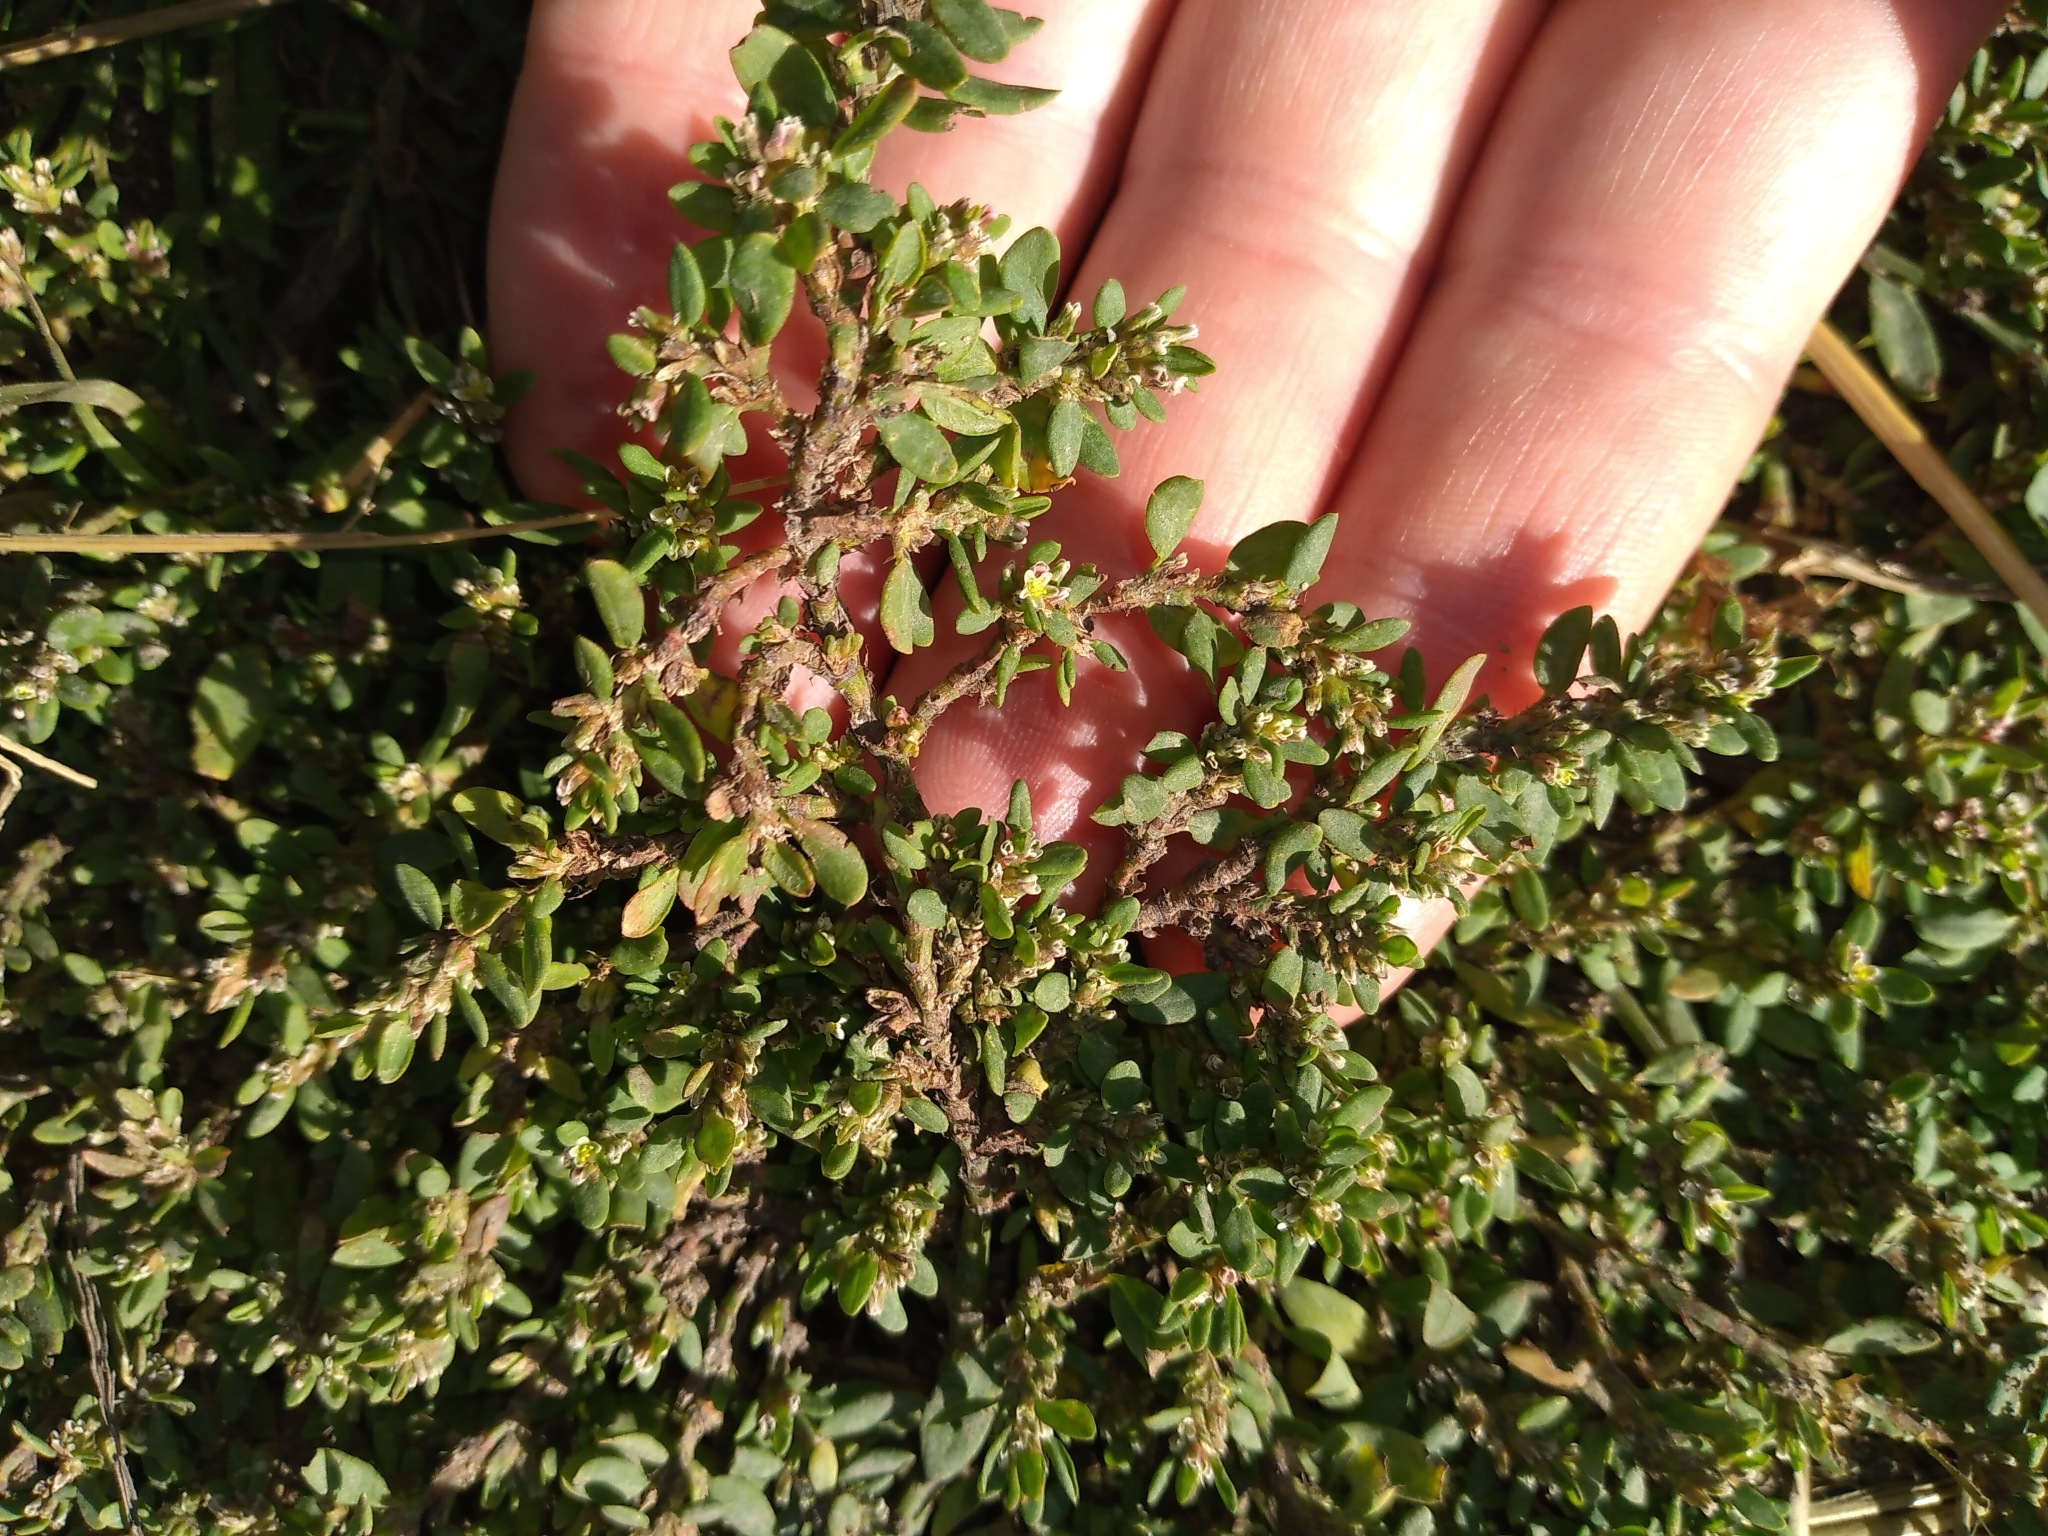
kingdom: Plantae
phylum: Tracheophyta
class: Magnoliopsida
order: Caryophyllales
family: Polygonaceae
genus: Polygonum
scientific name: Polygonum aviculare
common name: Prostrate knotweed
